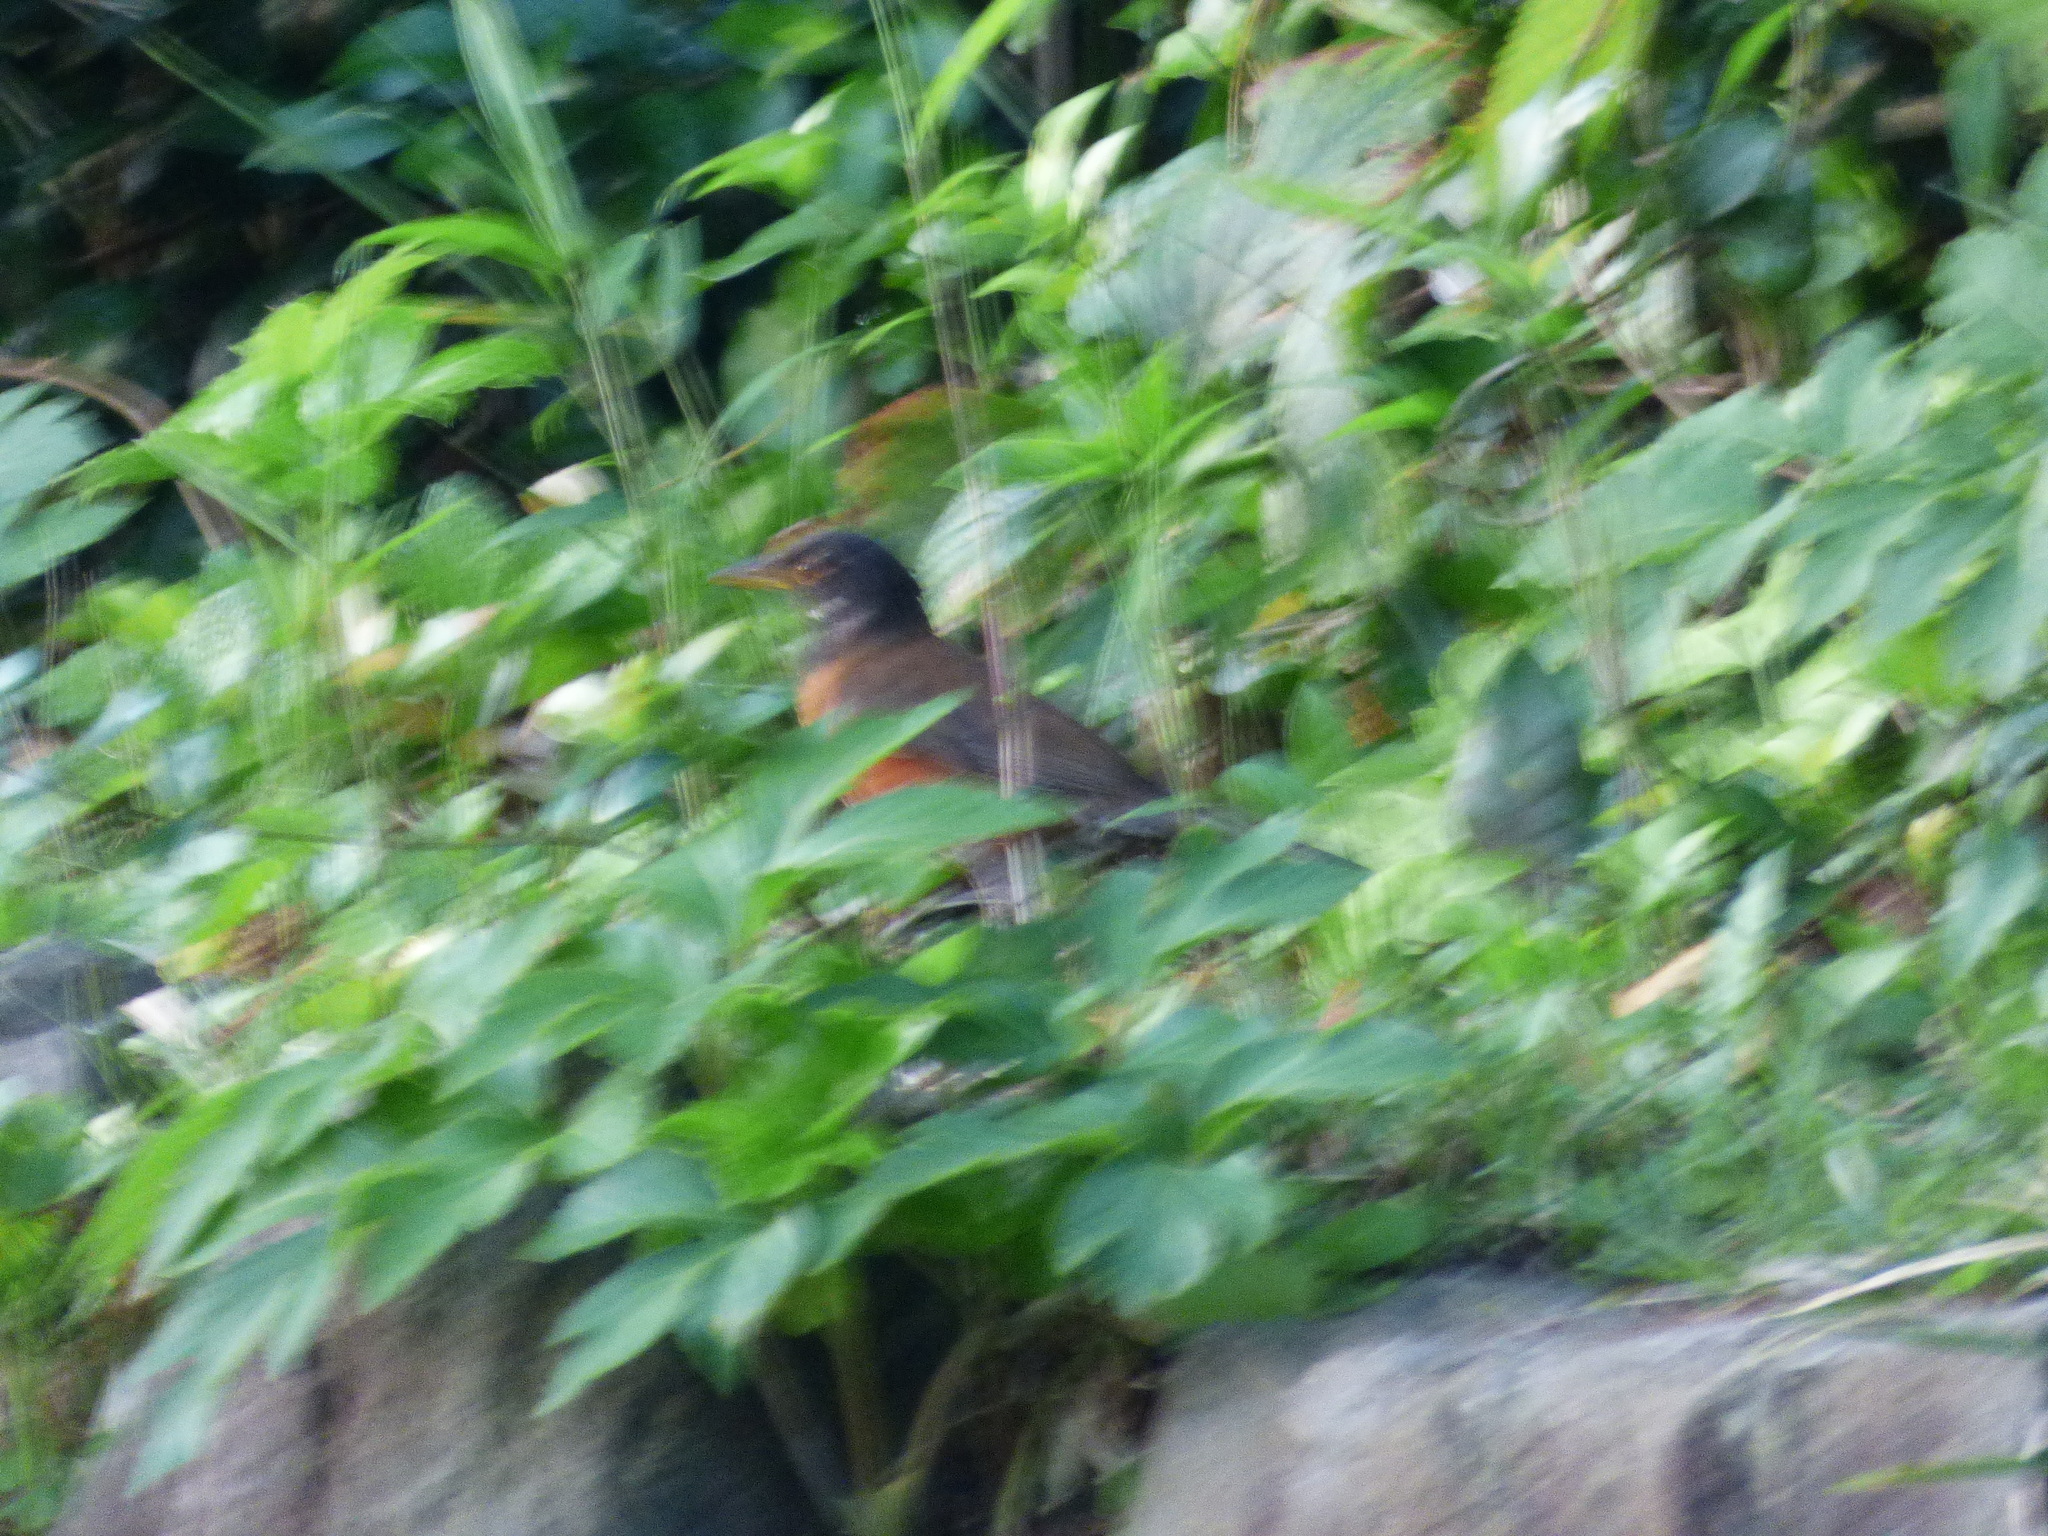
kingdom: Animalia
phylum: Chordata
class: Aves
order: Passeriformes
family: Turdidae
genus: Turdus
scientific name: Turdus celaenops
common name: Izu thrush
